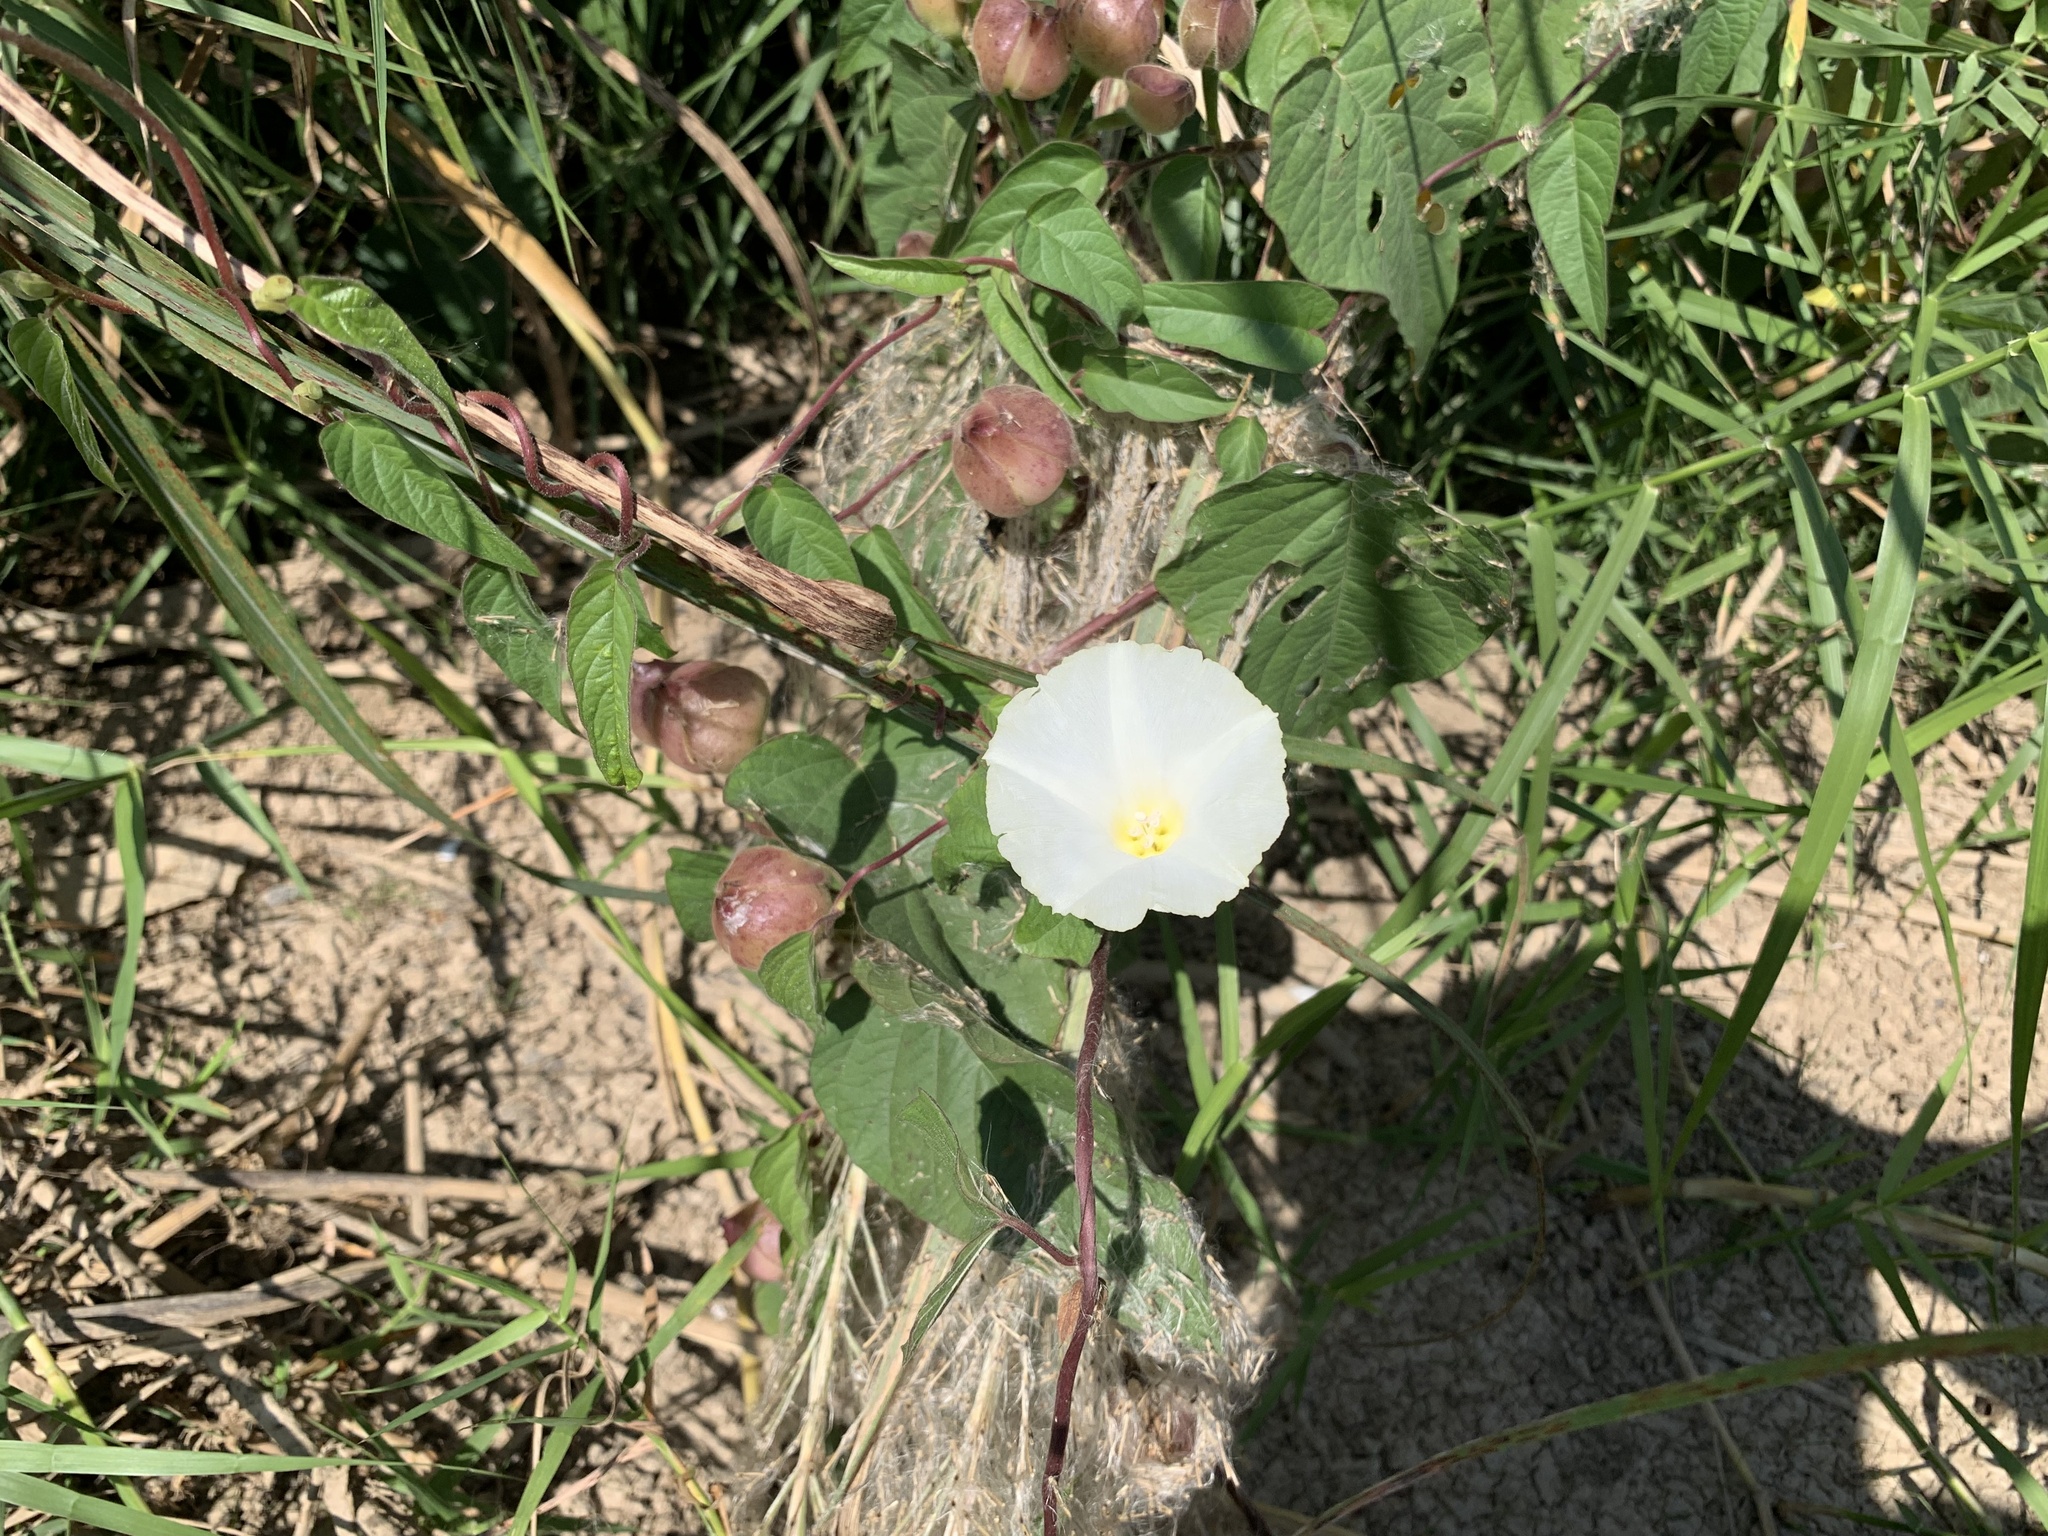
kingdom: Plantae
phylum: Tracheophyta
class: Magnoliopsida
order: Solanales
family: Convolvulaceae
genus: Operculina
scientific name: Operculina turpethum
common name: Transparent wood-rose
